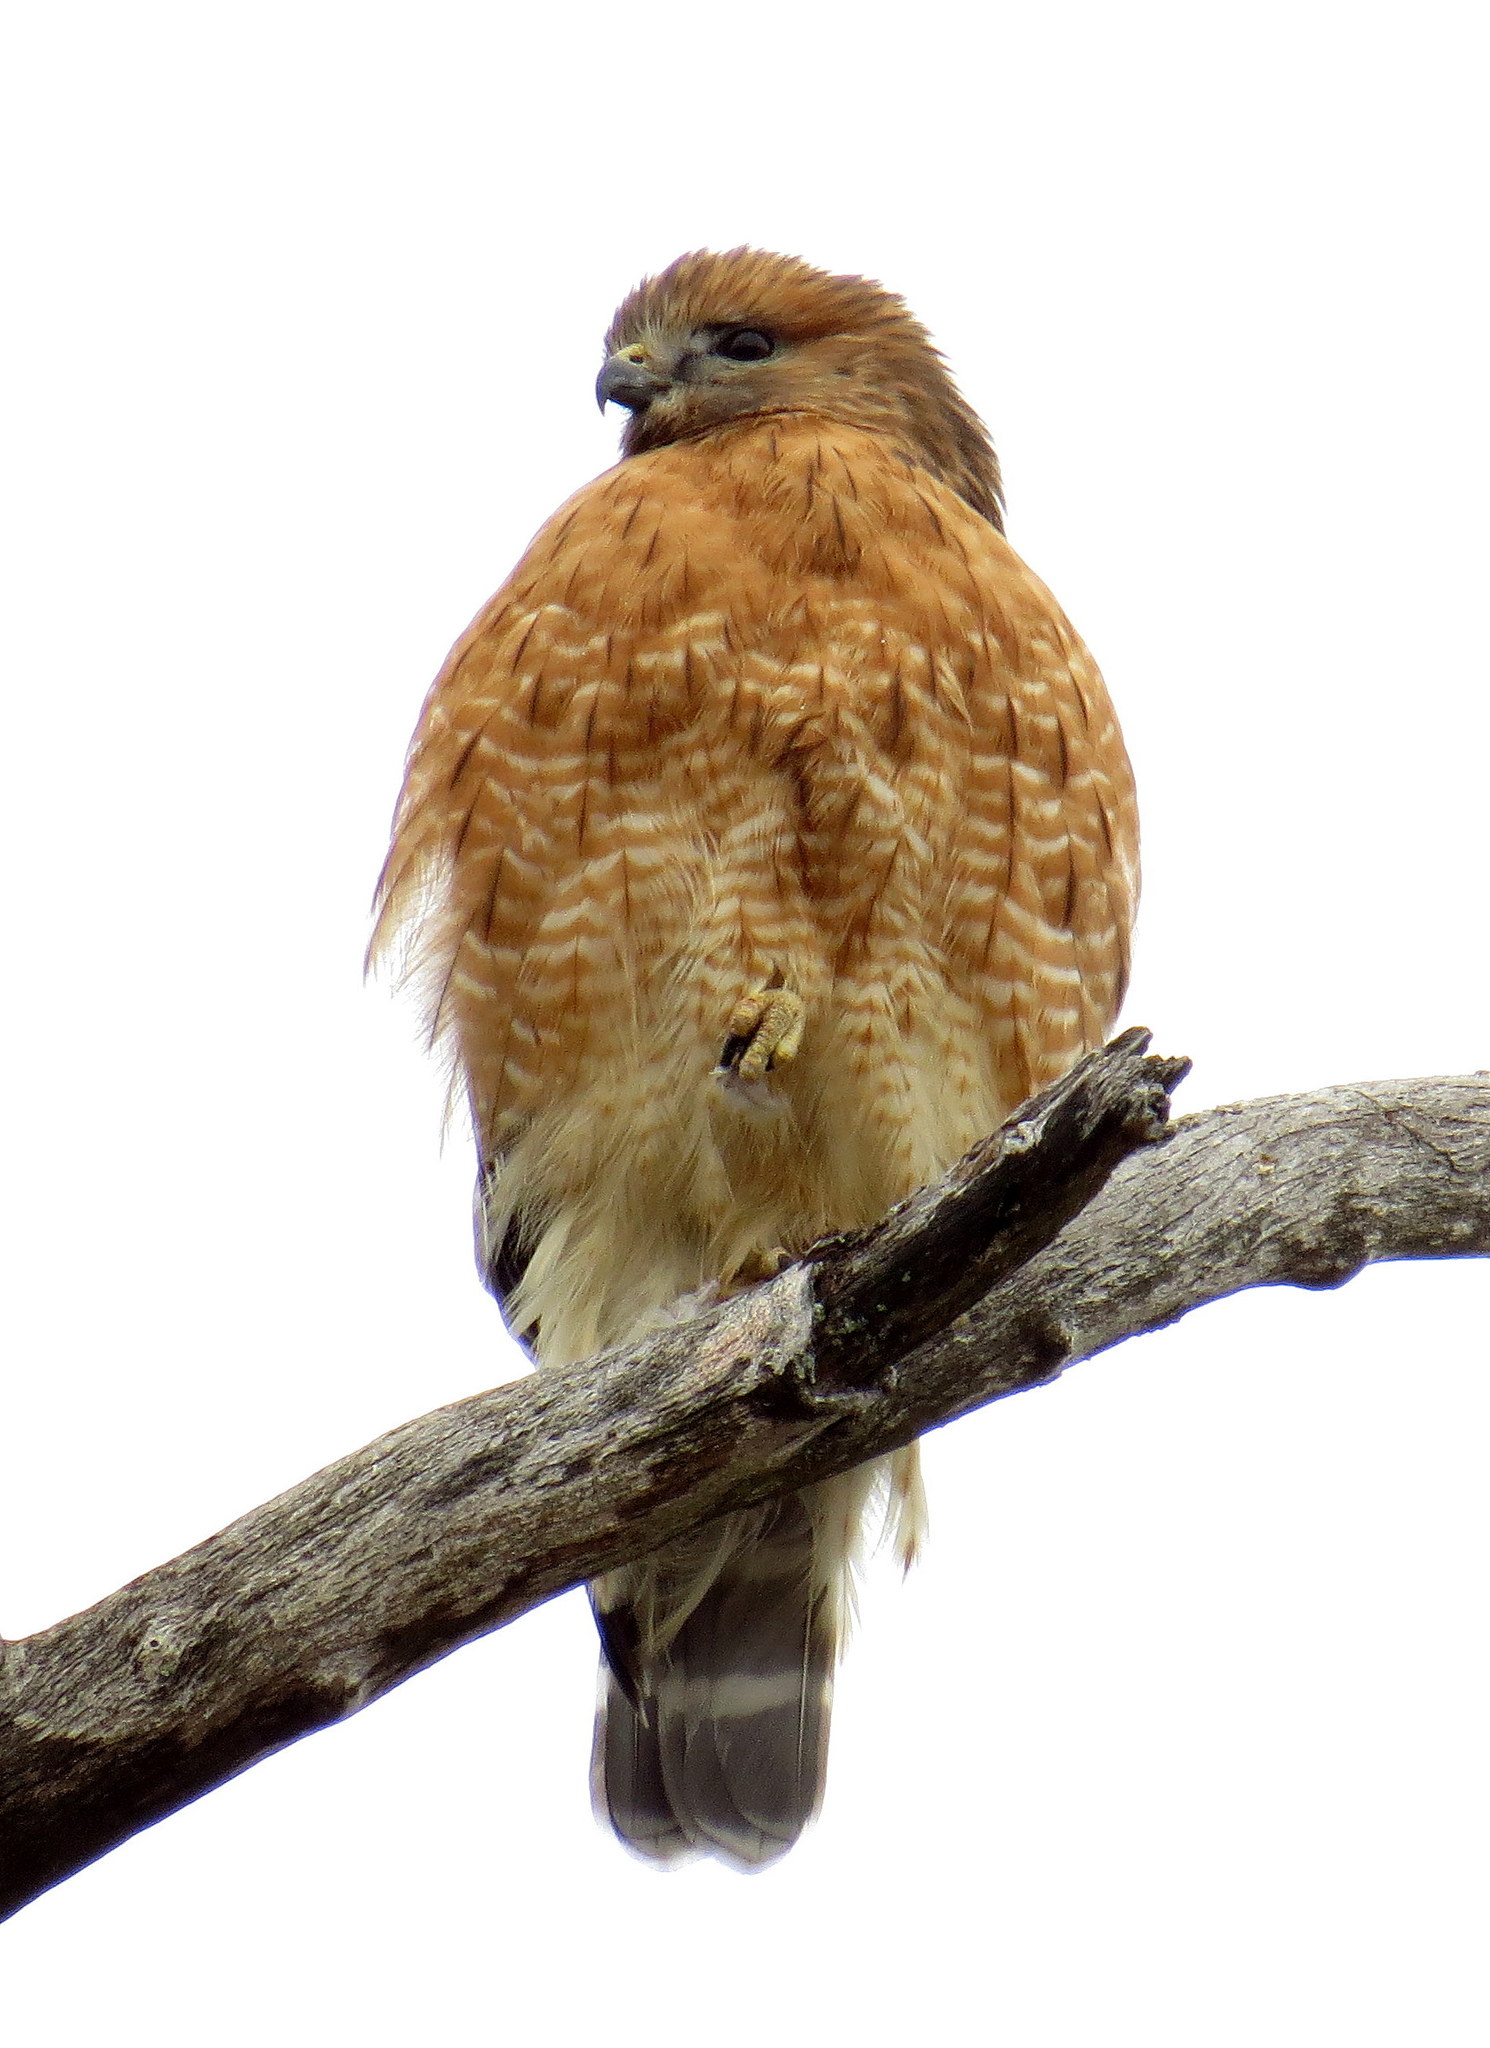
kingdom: Animalia
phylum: Chordata
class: Aves
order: Accipitriformes
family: Accipitridae
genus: Buteo
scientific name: Buteo lineatus
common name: Red-shouldered hawk
